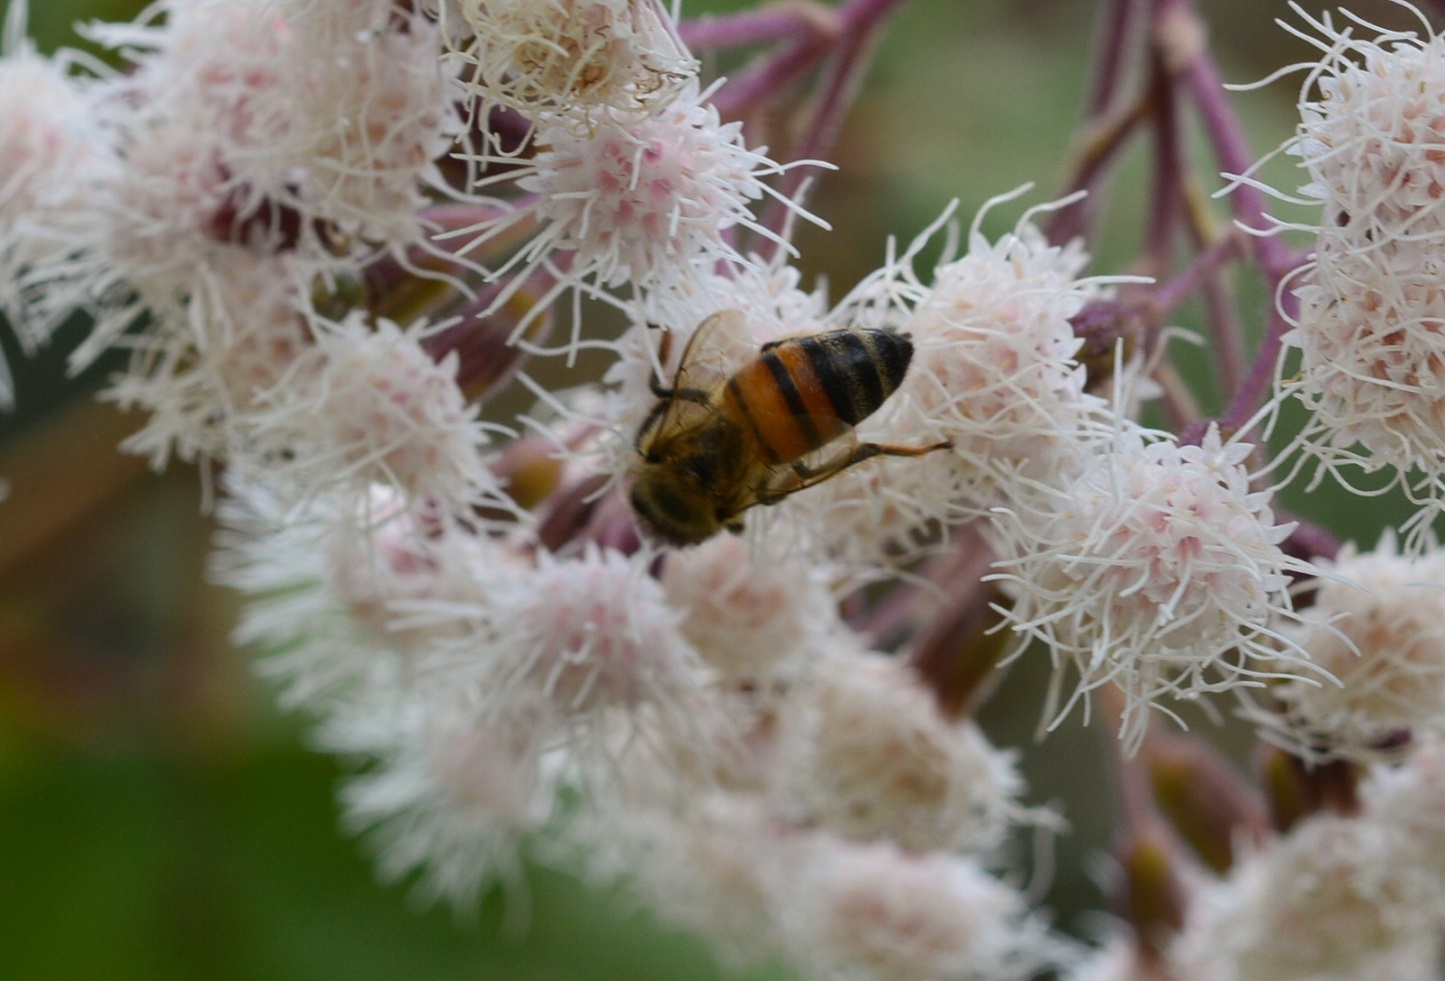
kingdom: Animalia
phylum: Arthropoda
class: Insecta
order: Hymenoptera
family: Apidae
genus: Apis
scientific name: Apis mellifera
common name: Honey bee
